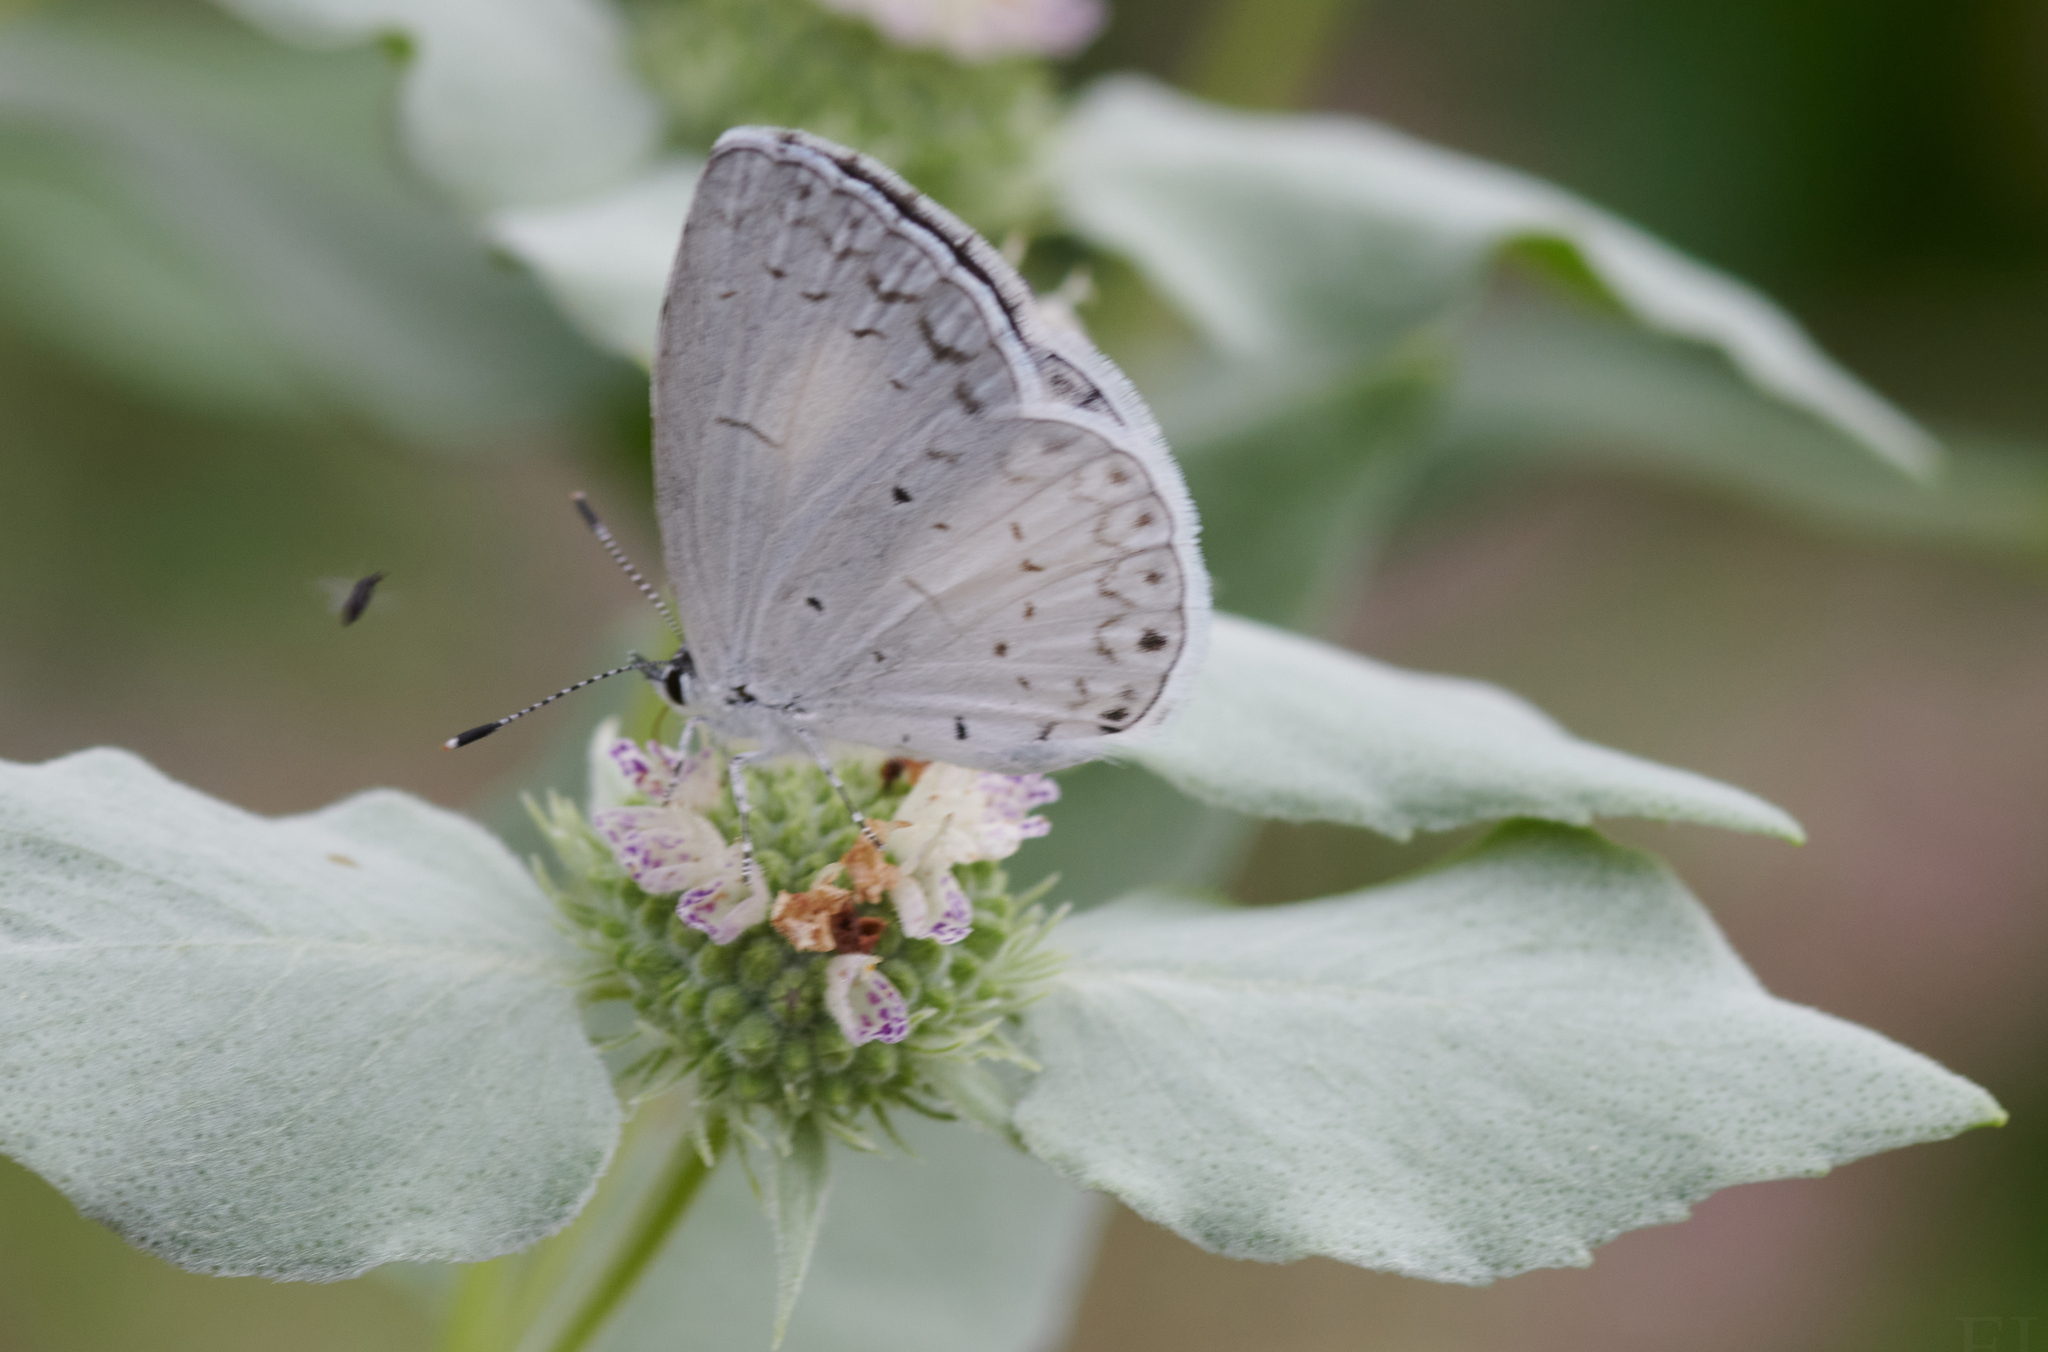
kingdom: Animalia
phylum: Arthropoda
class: Insecta
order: Lepidoptera
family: Lycaenidae
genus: Cyaniris
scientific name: Cyaniris neglecta
